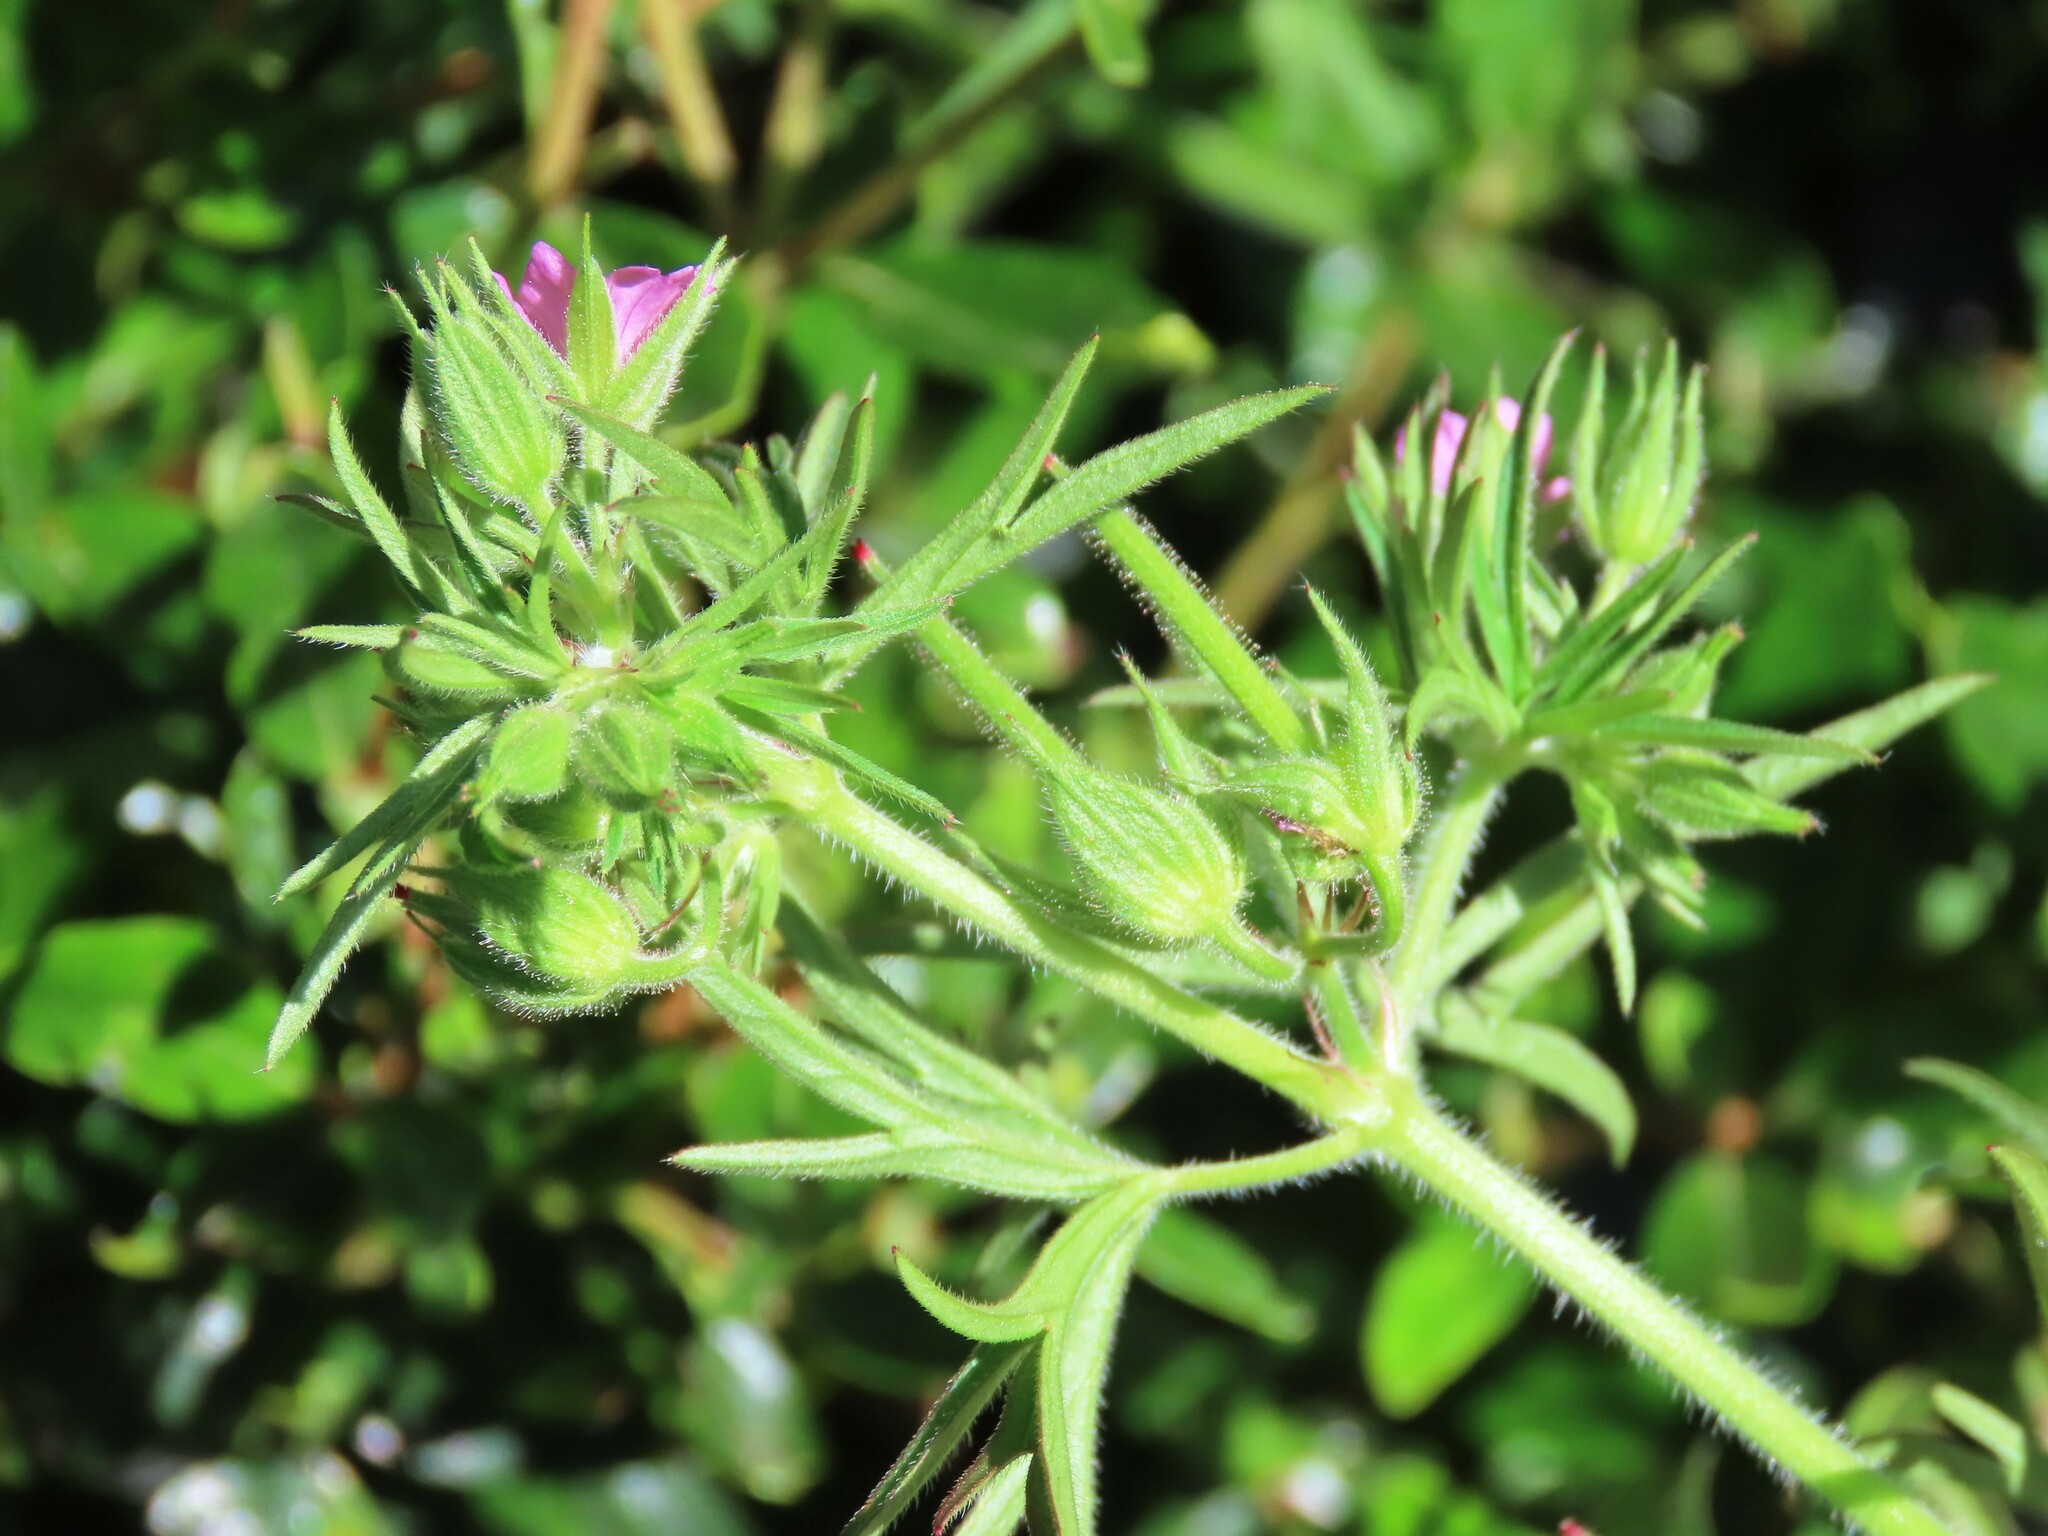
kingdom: Plantae
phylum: Tracheophyta
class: Magnoliopsida
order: Geraniales
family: Geraniaceae
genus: Geranium
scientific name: Geranium dissectum
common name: Cut-leaved crane's-bill
